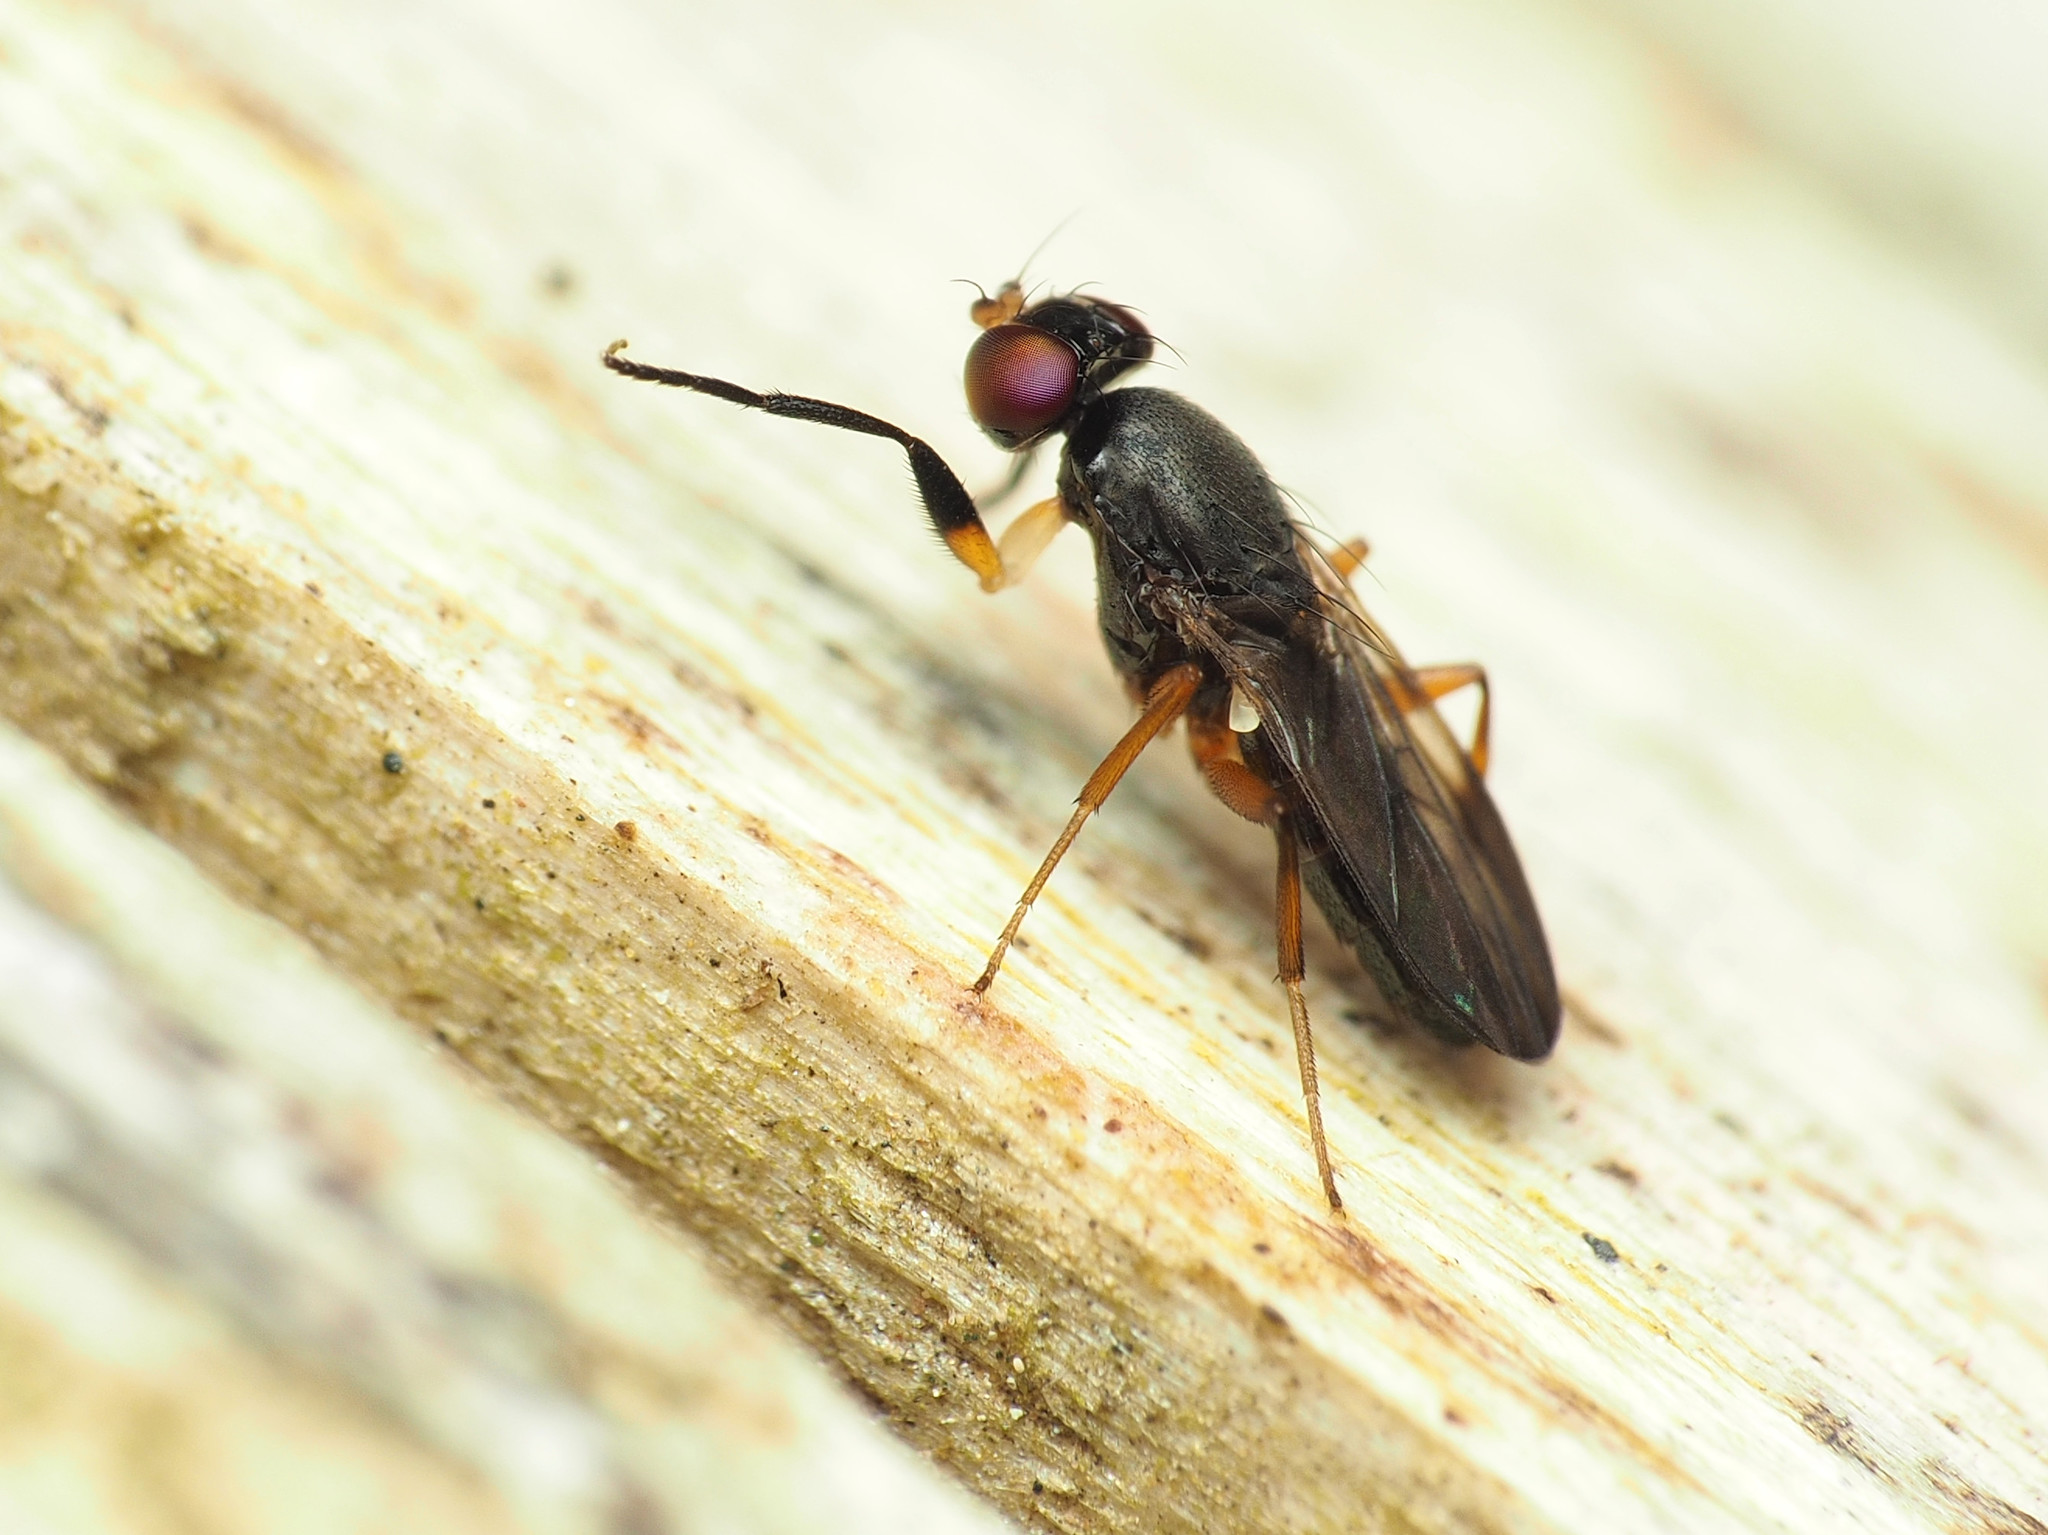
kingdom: Animalia
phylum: Arthropoda
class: Insecta
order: Diptera
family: Clusiidae
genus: Heteromeringia
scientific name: Heteromeringia nitida
